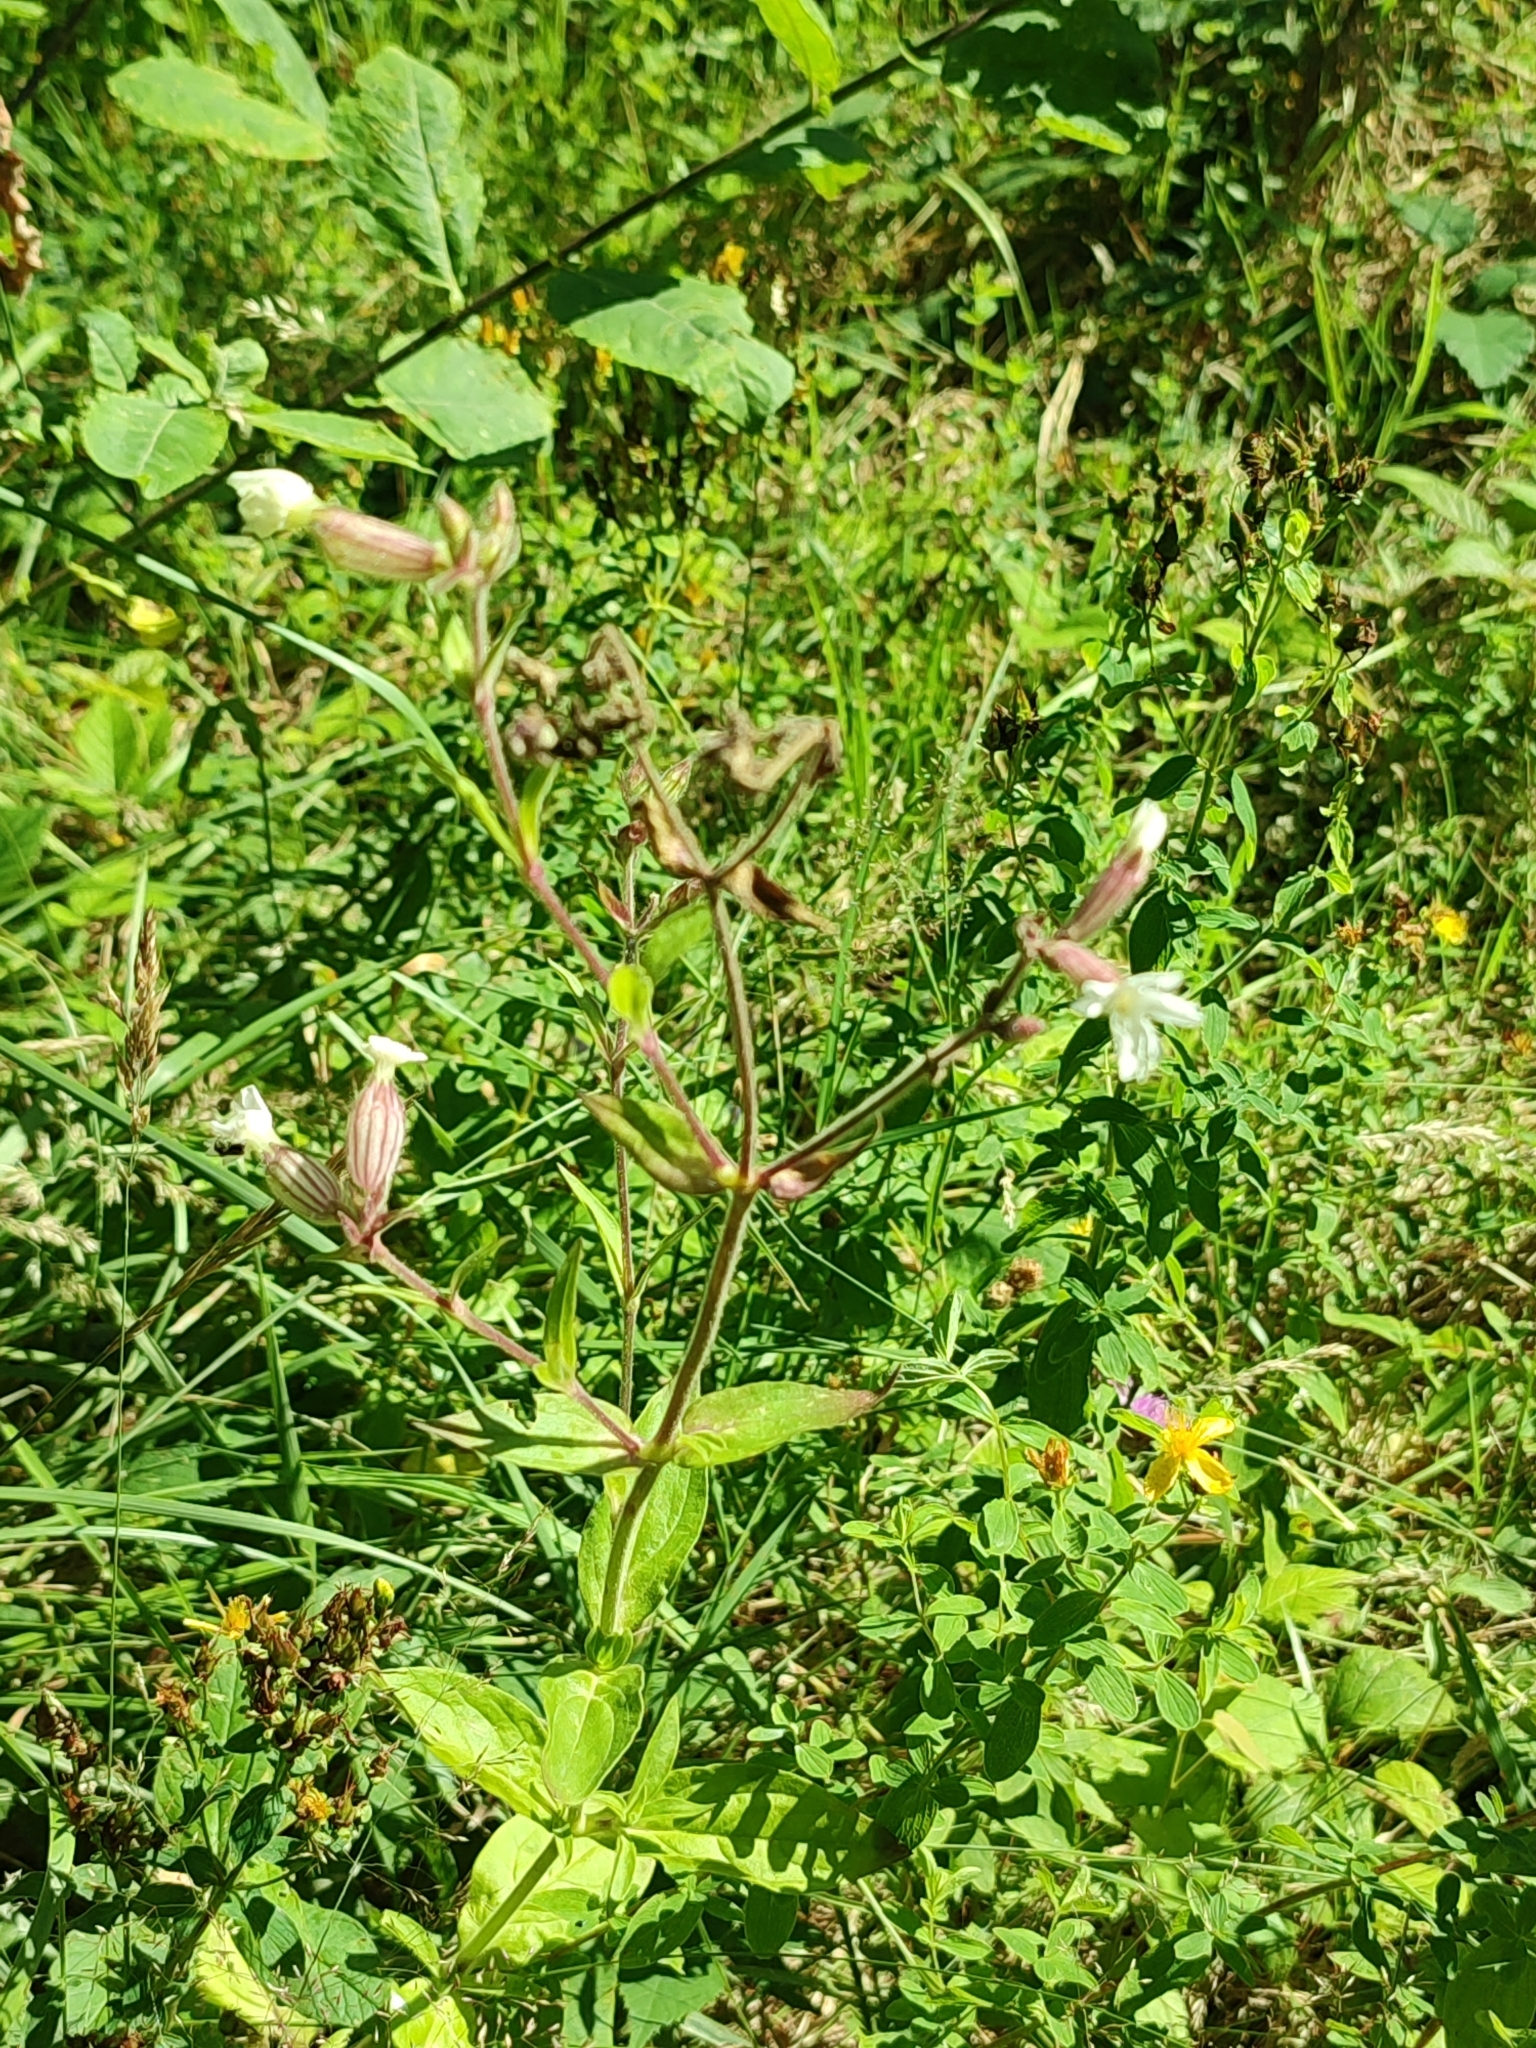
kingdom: Plantae
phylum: Tracheophyta
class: Magnoliopsida
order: Caryophyllales
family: Caryophyllaceae
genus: Silene
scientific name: Silene latifolia
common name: White campion
